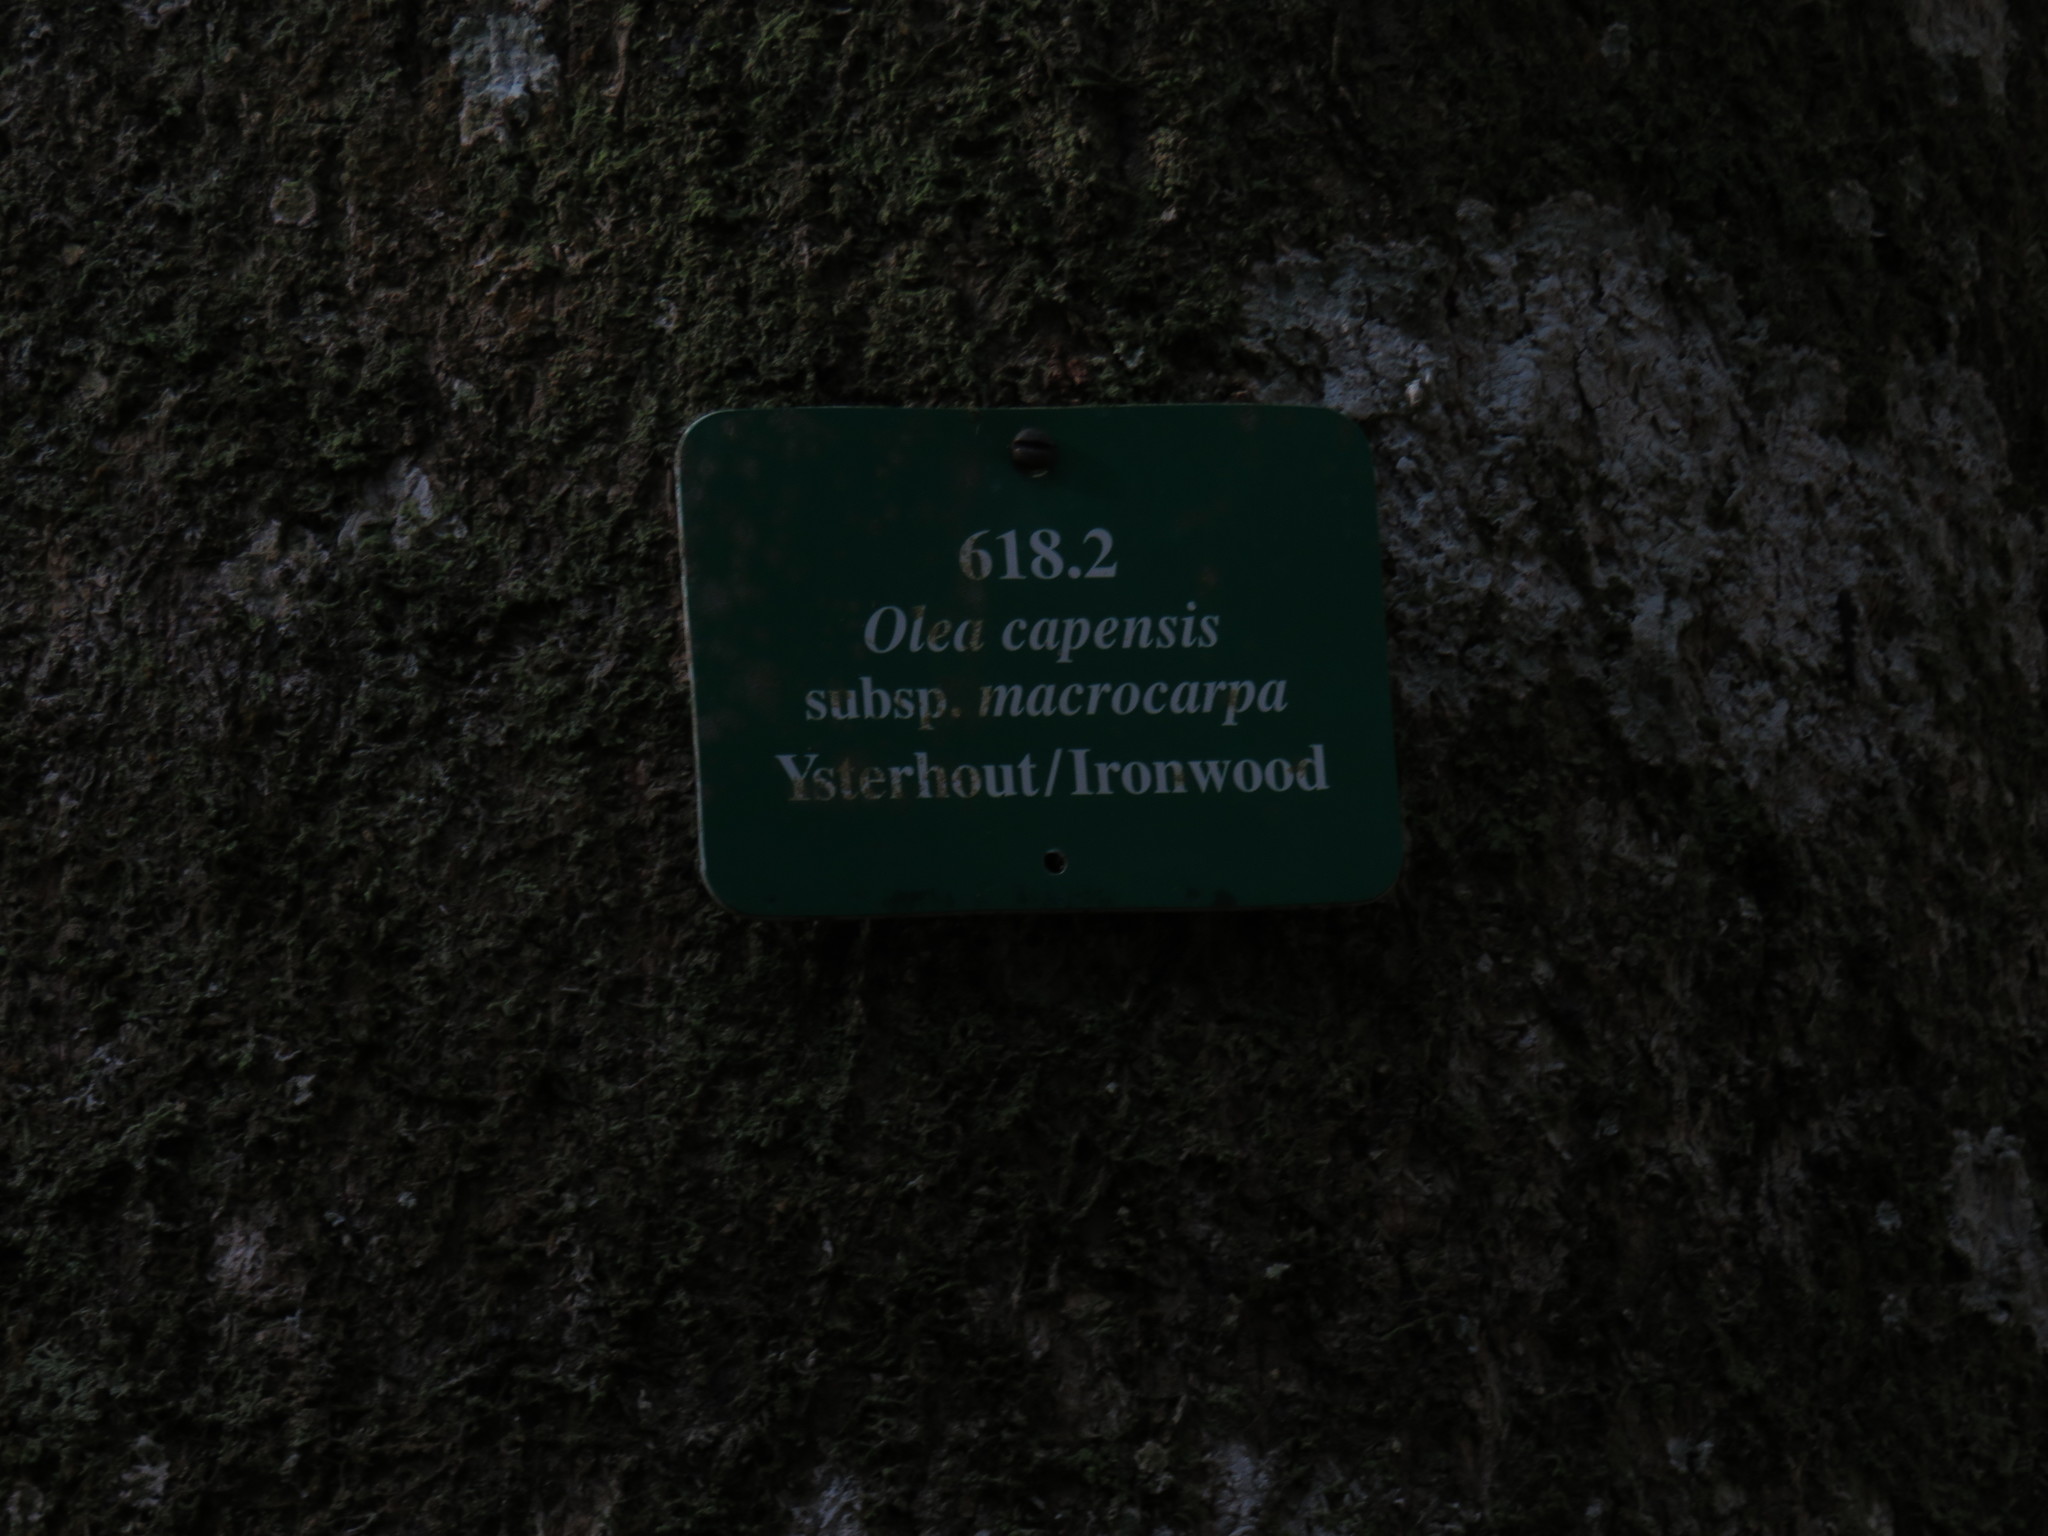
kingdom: Plantae
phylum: Tracheophyta
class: Magnoliopsida
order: Lamiales
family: Oleaceae
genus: Olea
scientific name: Olea capensis
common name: Black ironwood
